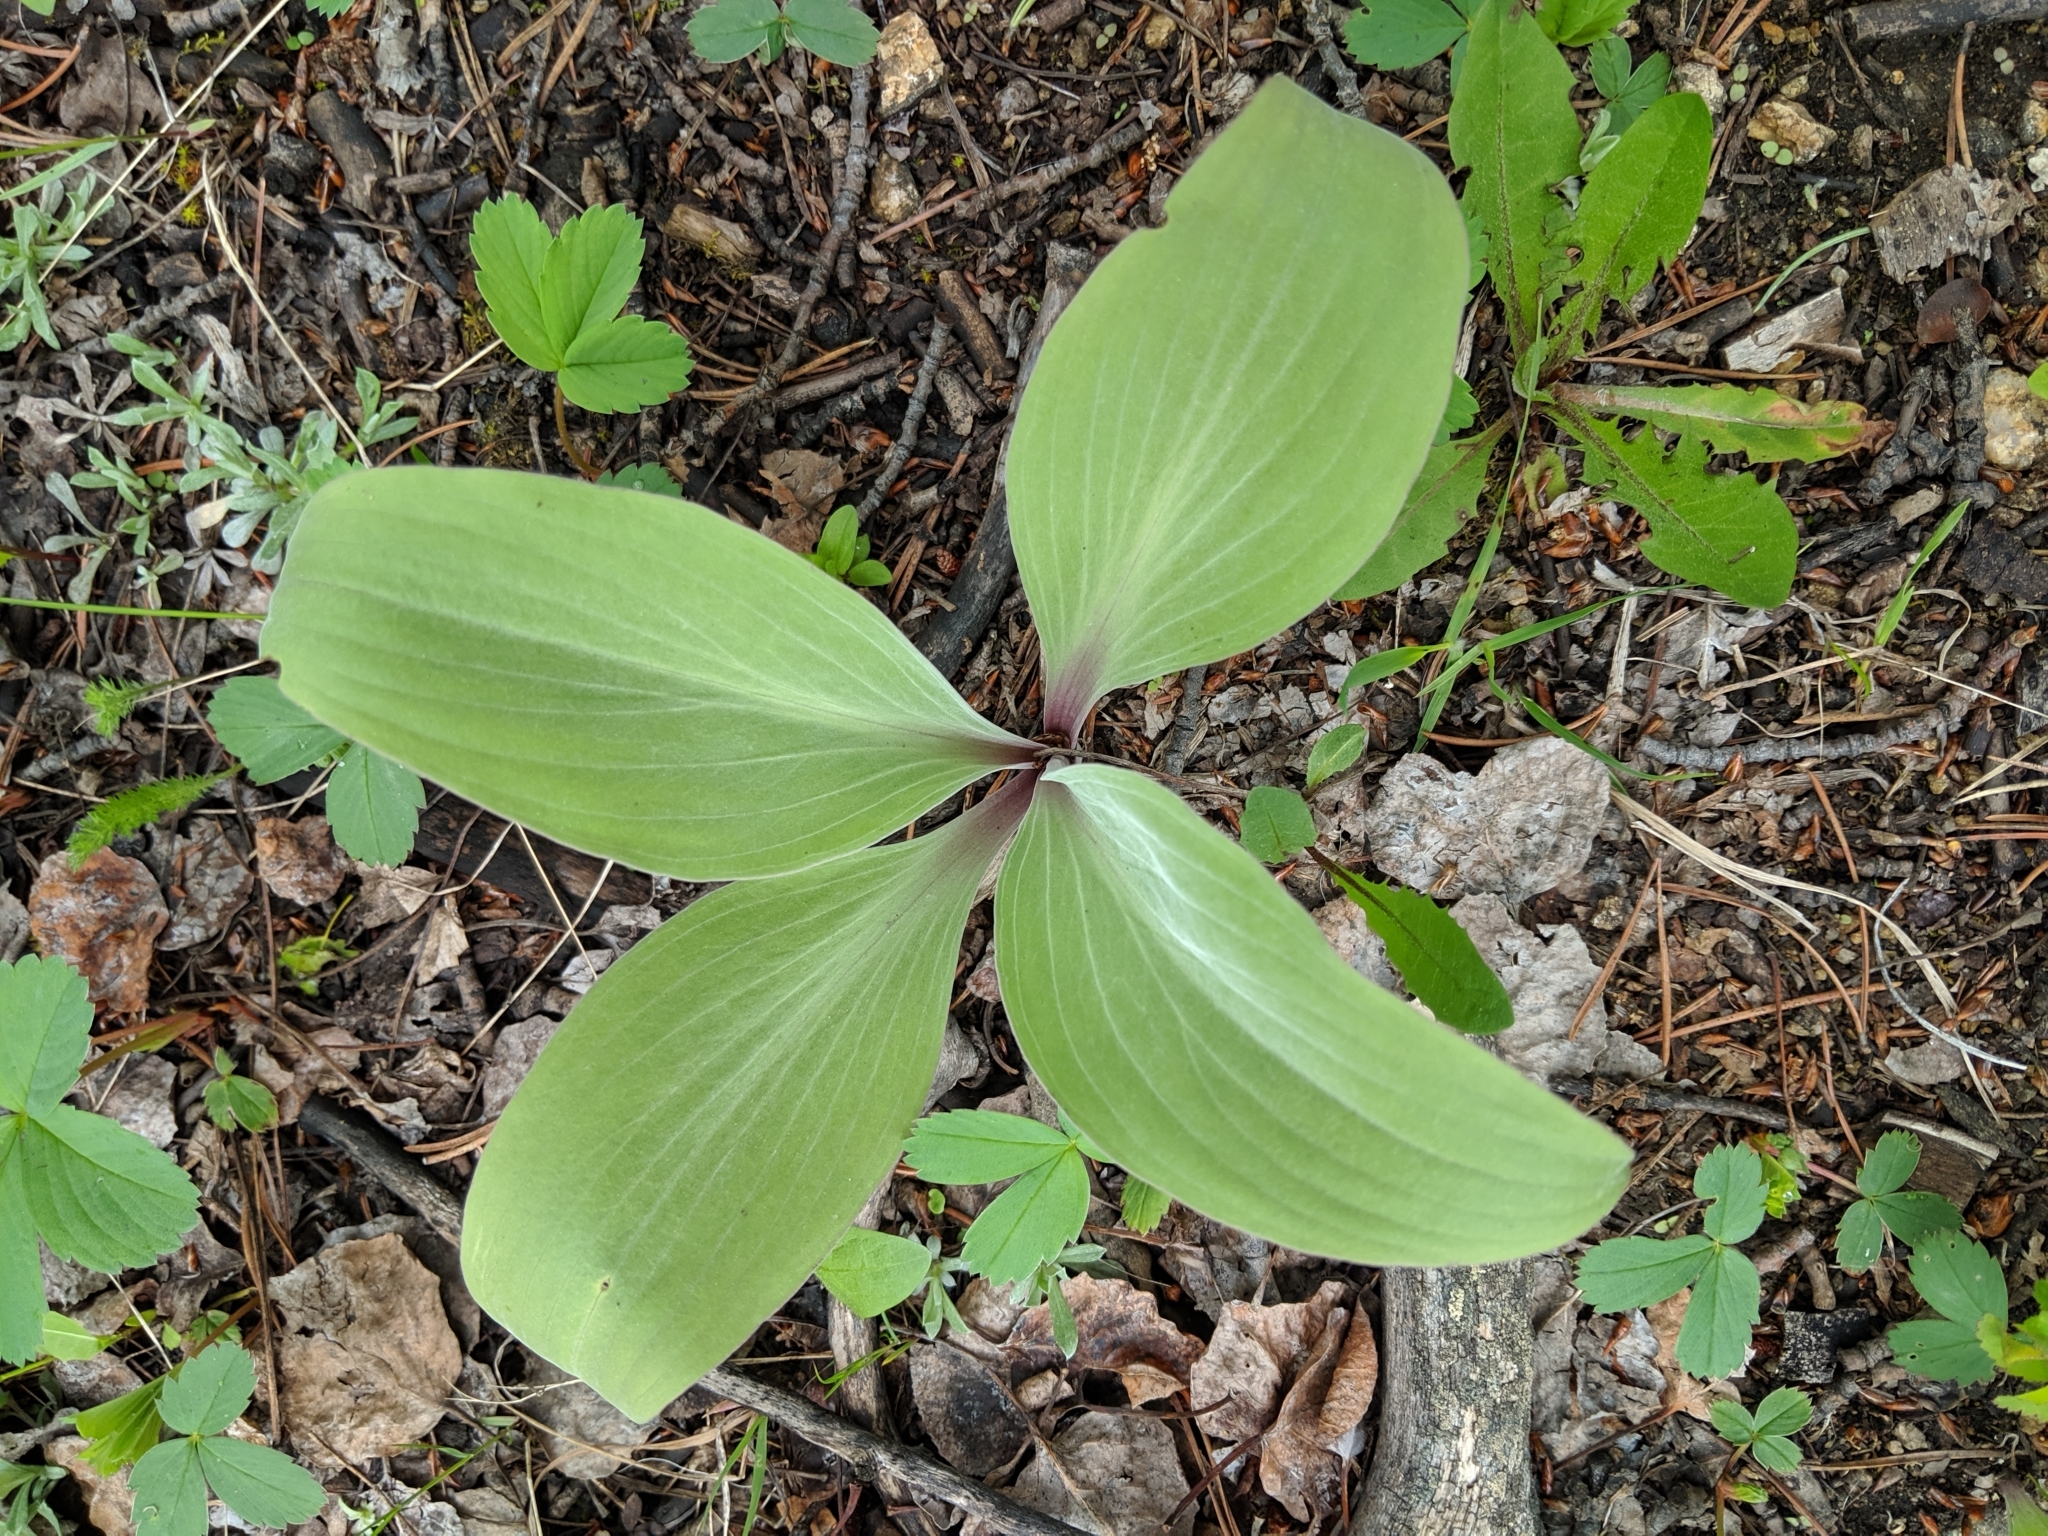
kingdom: Plantae
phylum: Tracheophyta
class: Magnoliopsida
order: Gentianales
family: Gentianaceae
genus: Frasera
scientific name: Frasera speciosa
